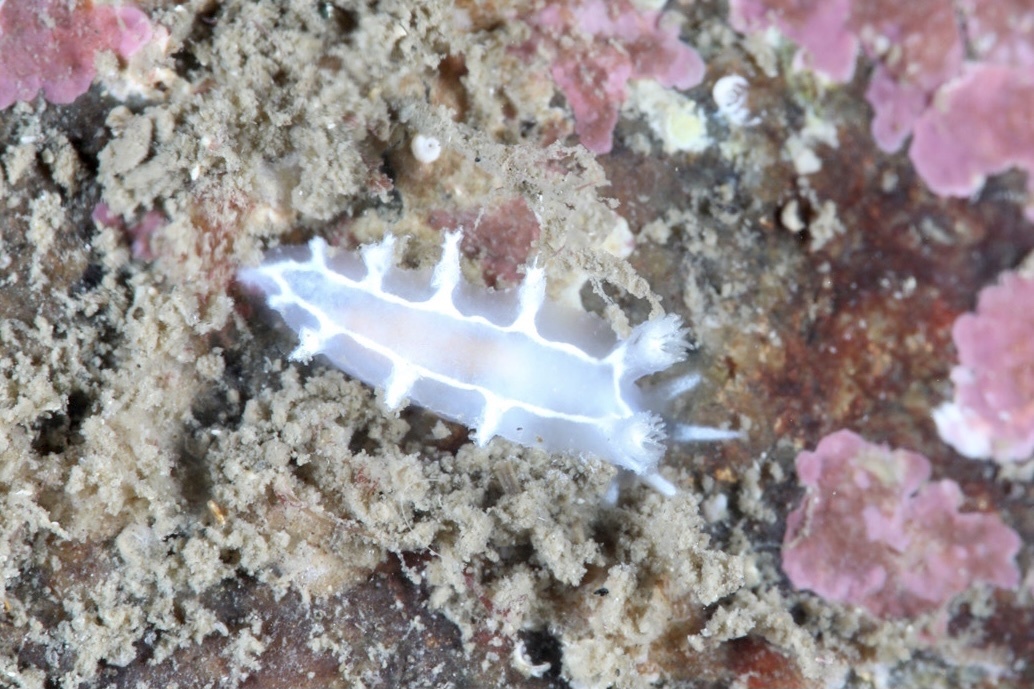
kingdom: Animalia
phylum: Mollusca
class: Gastropoda
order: Nudibranchia
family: Tritoniidae
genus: Duvaucelia
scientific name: Duvaucelia lineata
